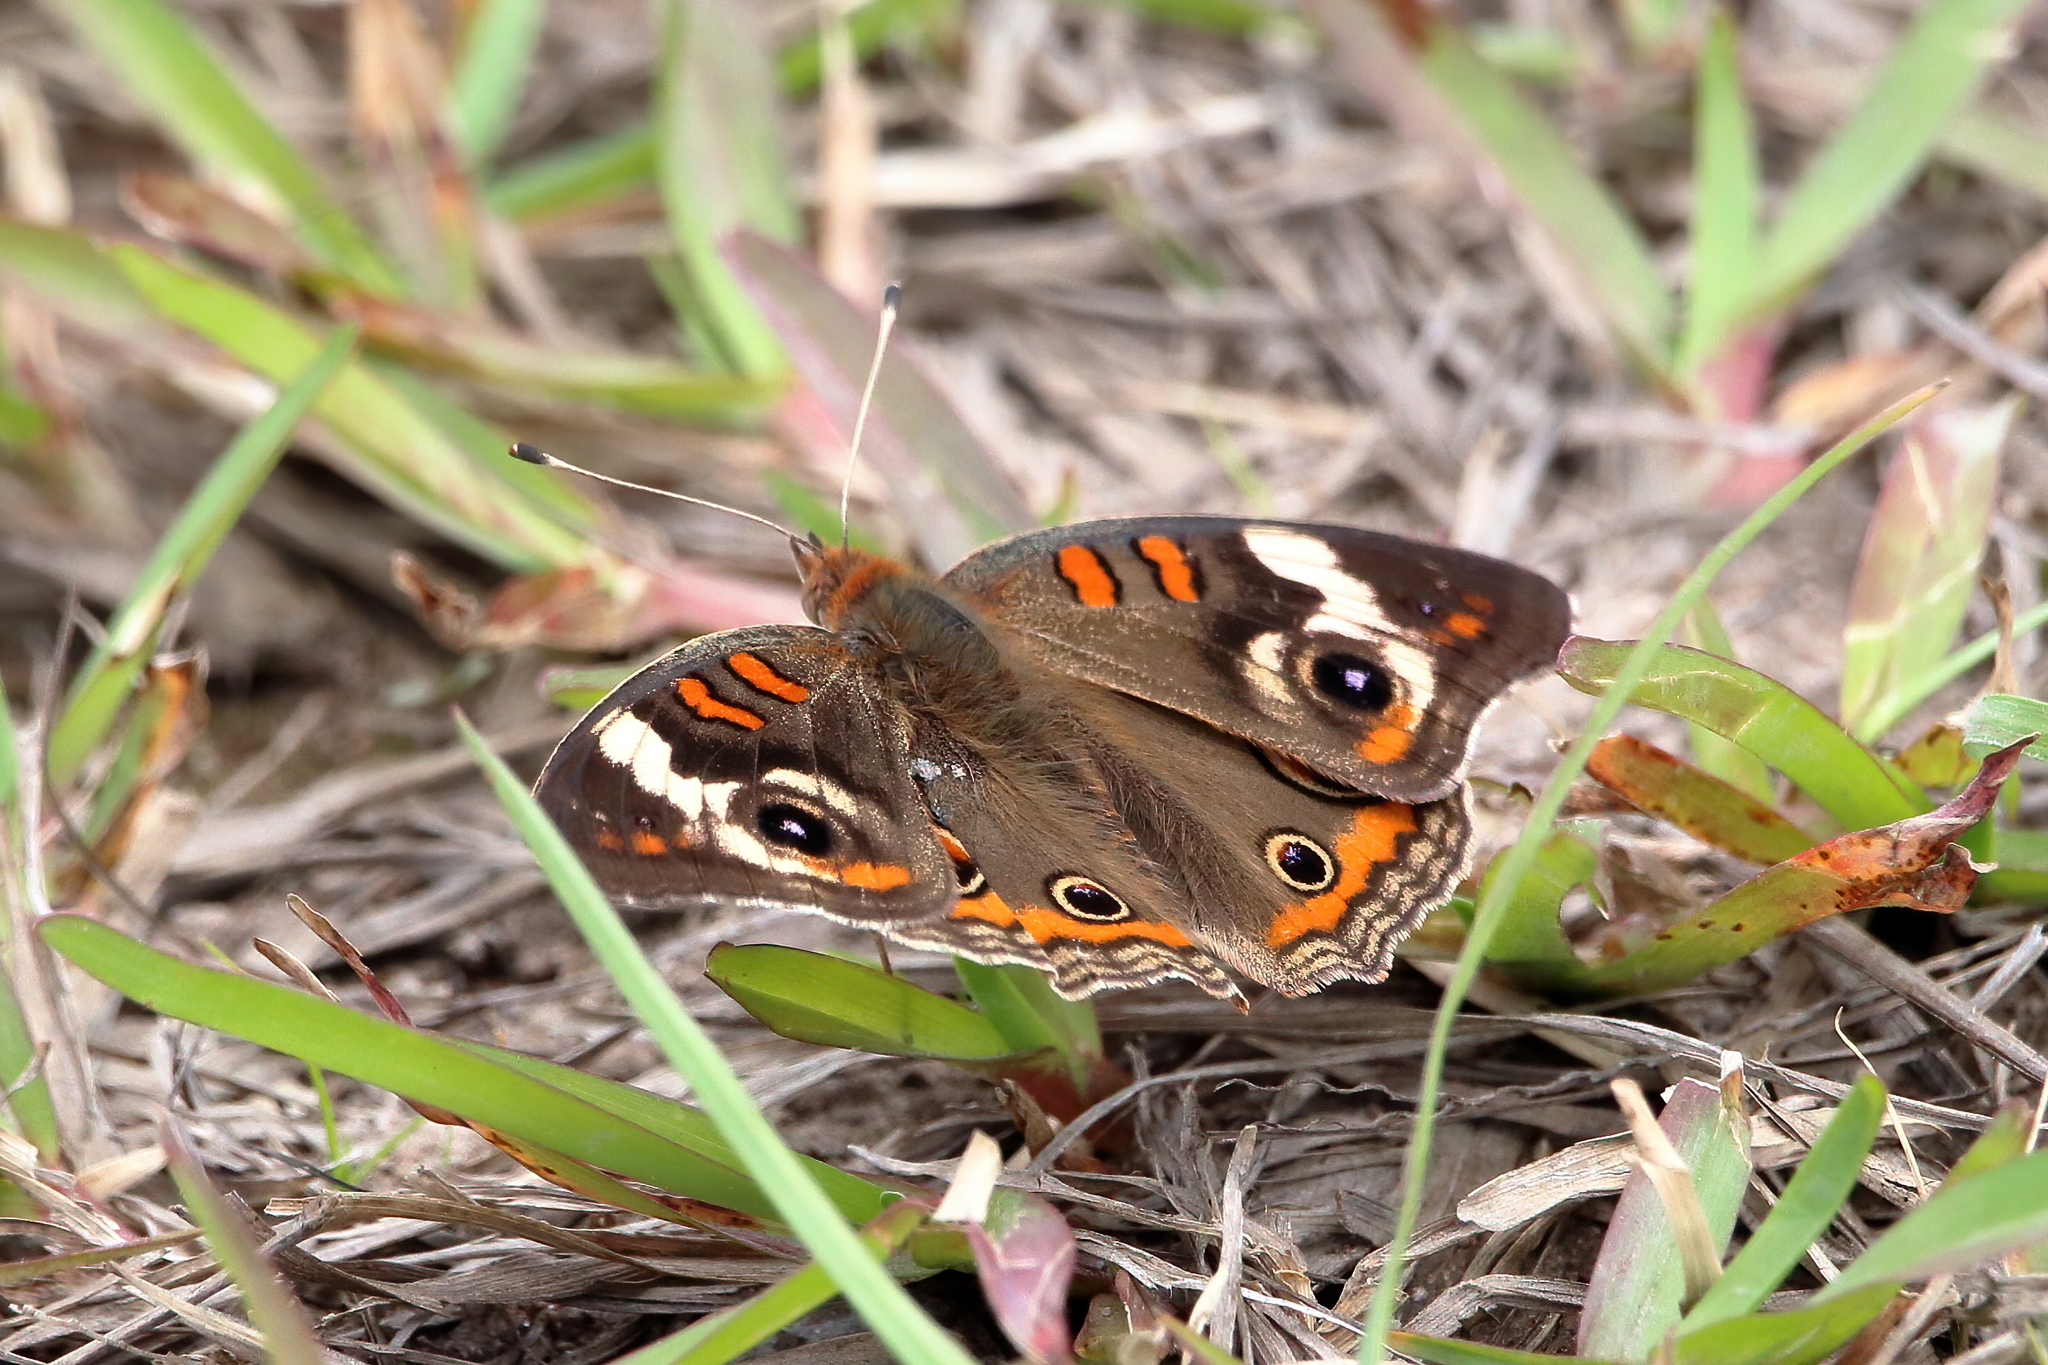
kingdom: Animalia
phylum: Arthropoda
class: Insecta
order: Lepidoptera
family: Nymphalidae
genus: Junonia
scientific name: Junonia coenia
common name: Common buckeye
